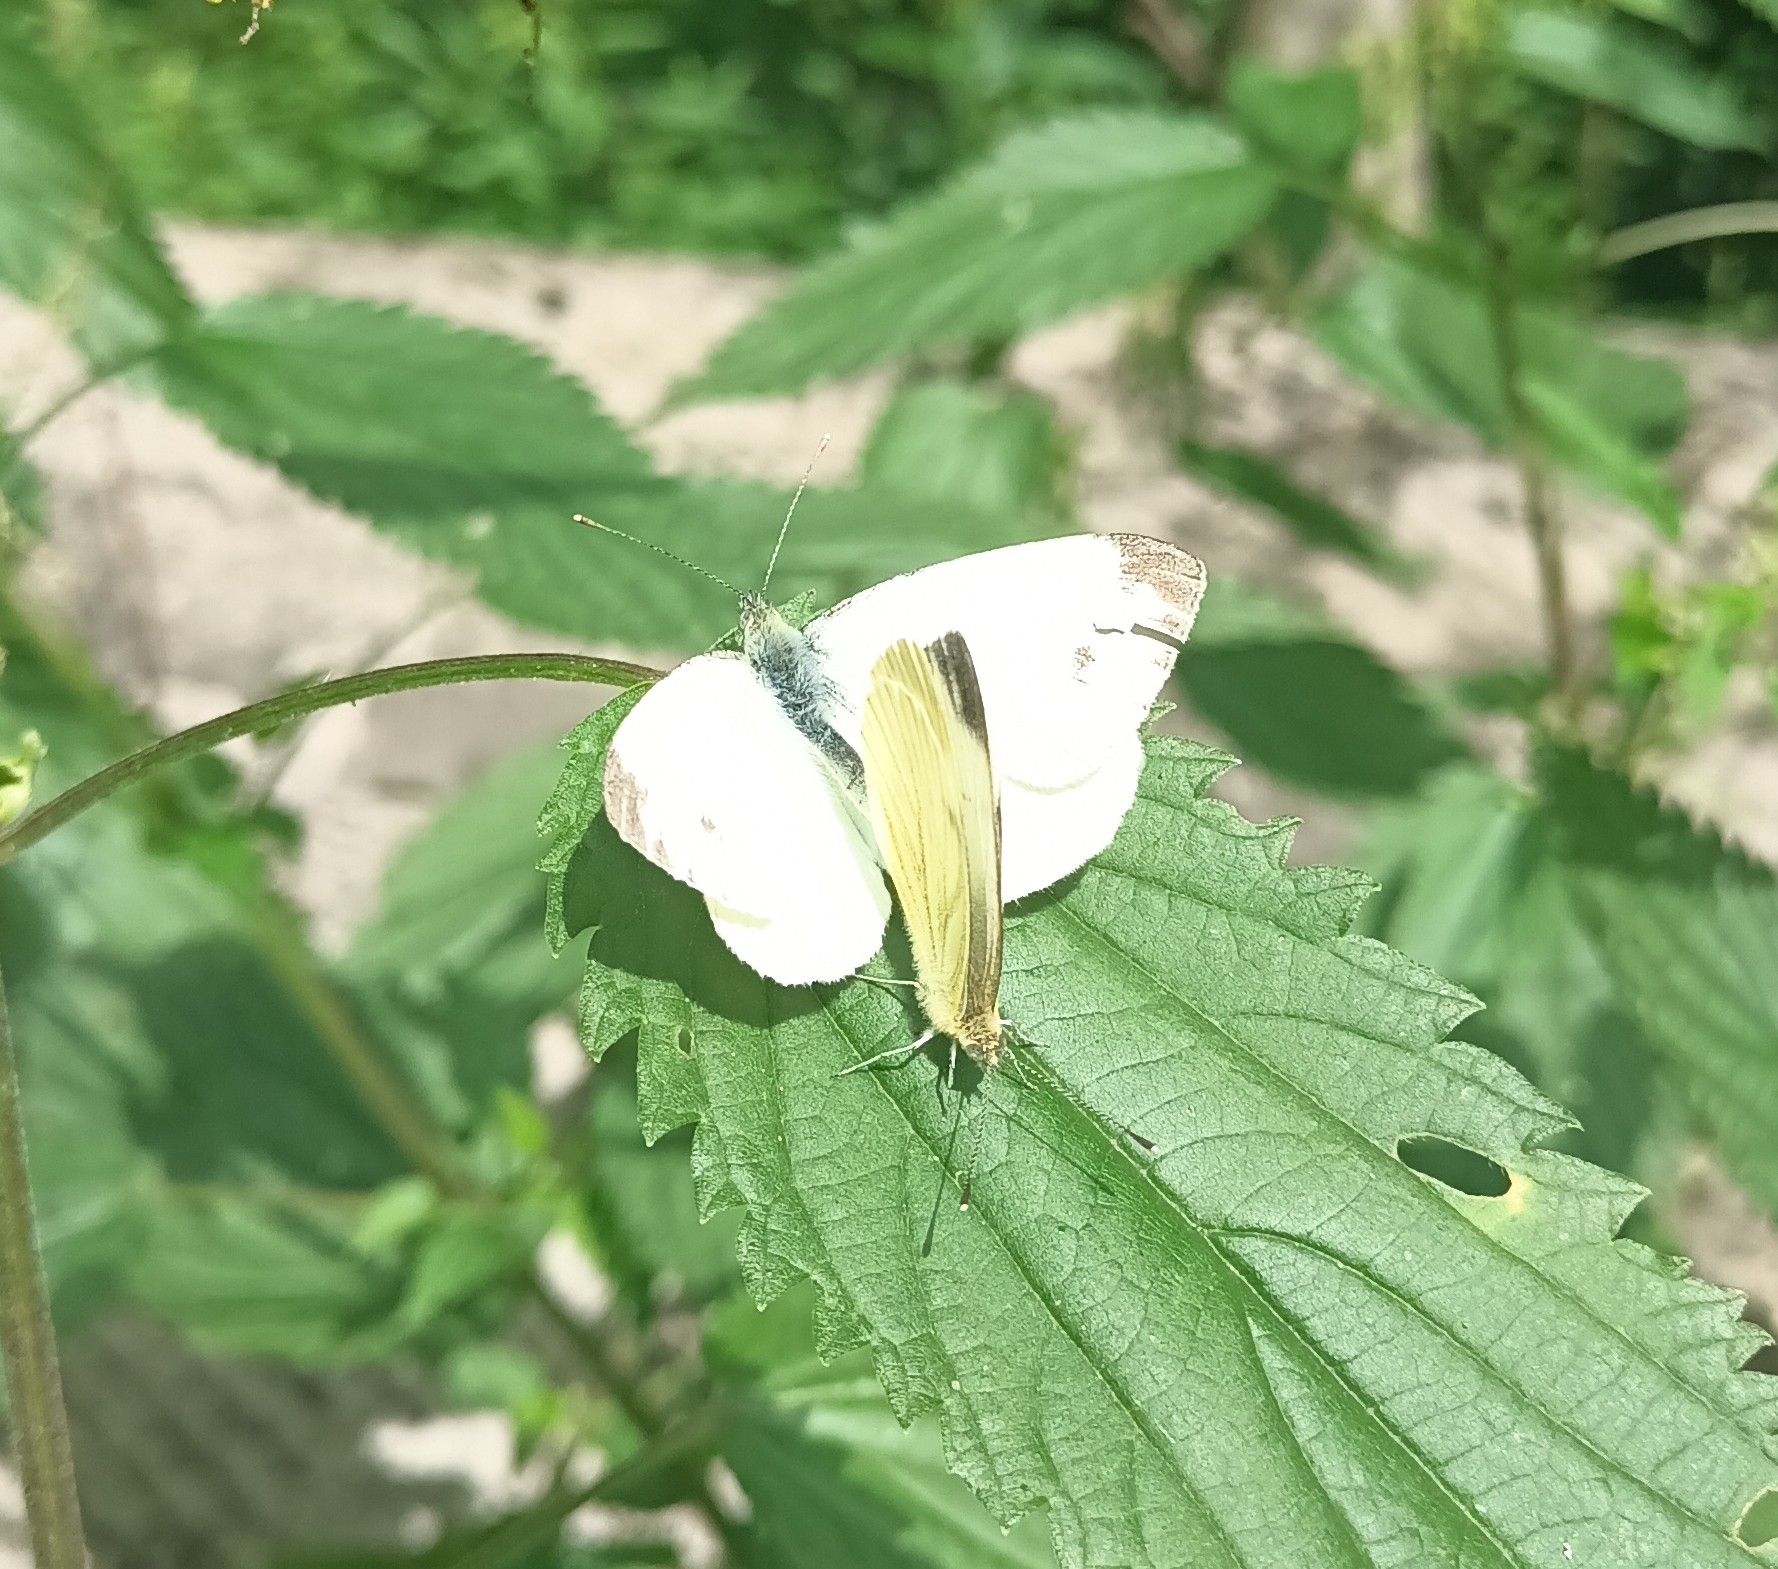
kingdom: Animalia
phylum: Arthropoda
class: Insecta
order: Lepidoptera
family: Pieridae
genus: Pieris
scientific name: Pieris napi
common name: Green-veined white
